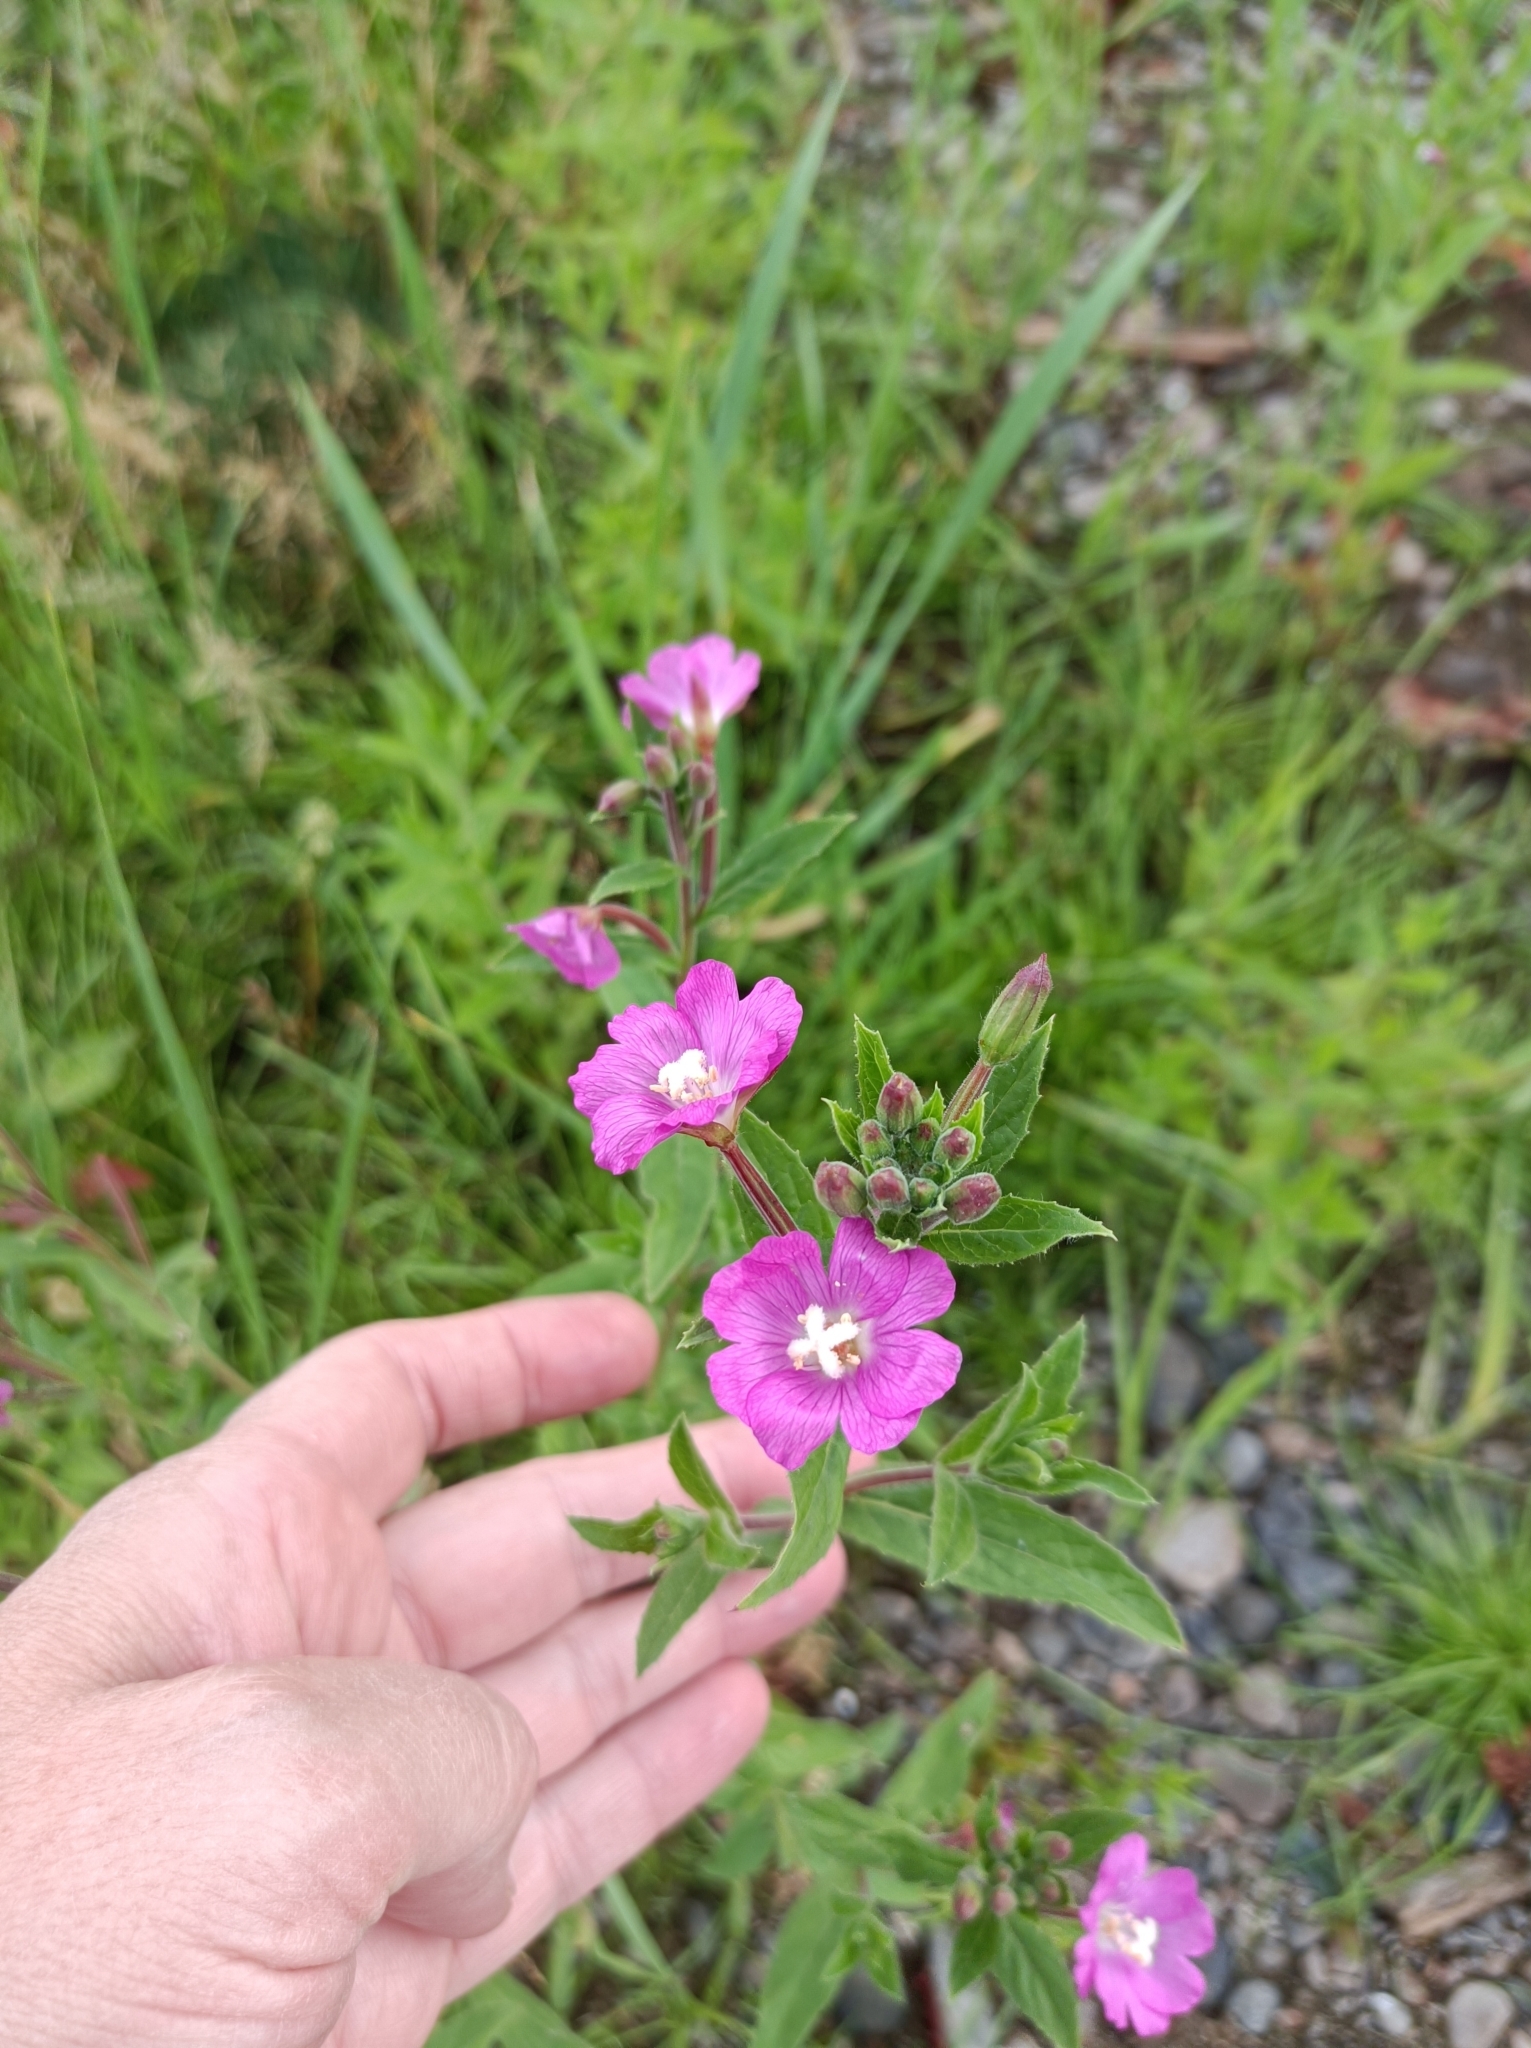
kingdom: Plantae
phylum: Tracheophyta
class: Magnoliopsida
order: Myrtales
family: Onagraceae
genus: Epilobium
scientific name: Epilobium hirsutum
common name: Great willowherb
